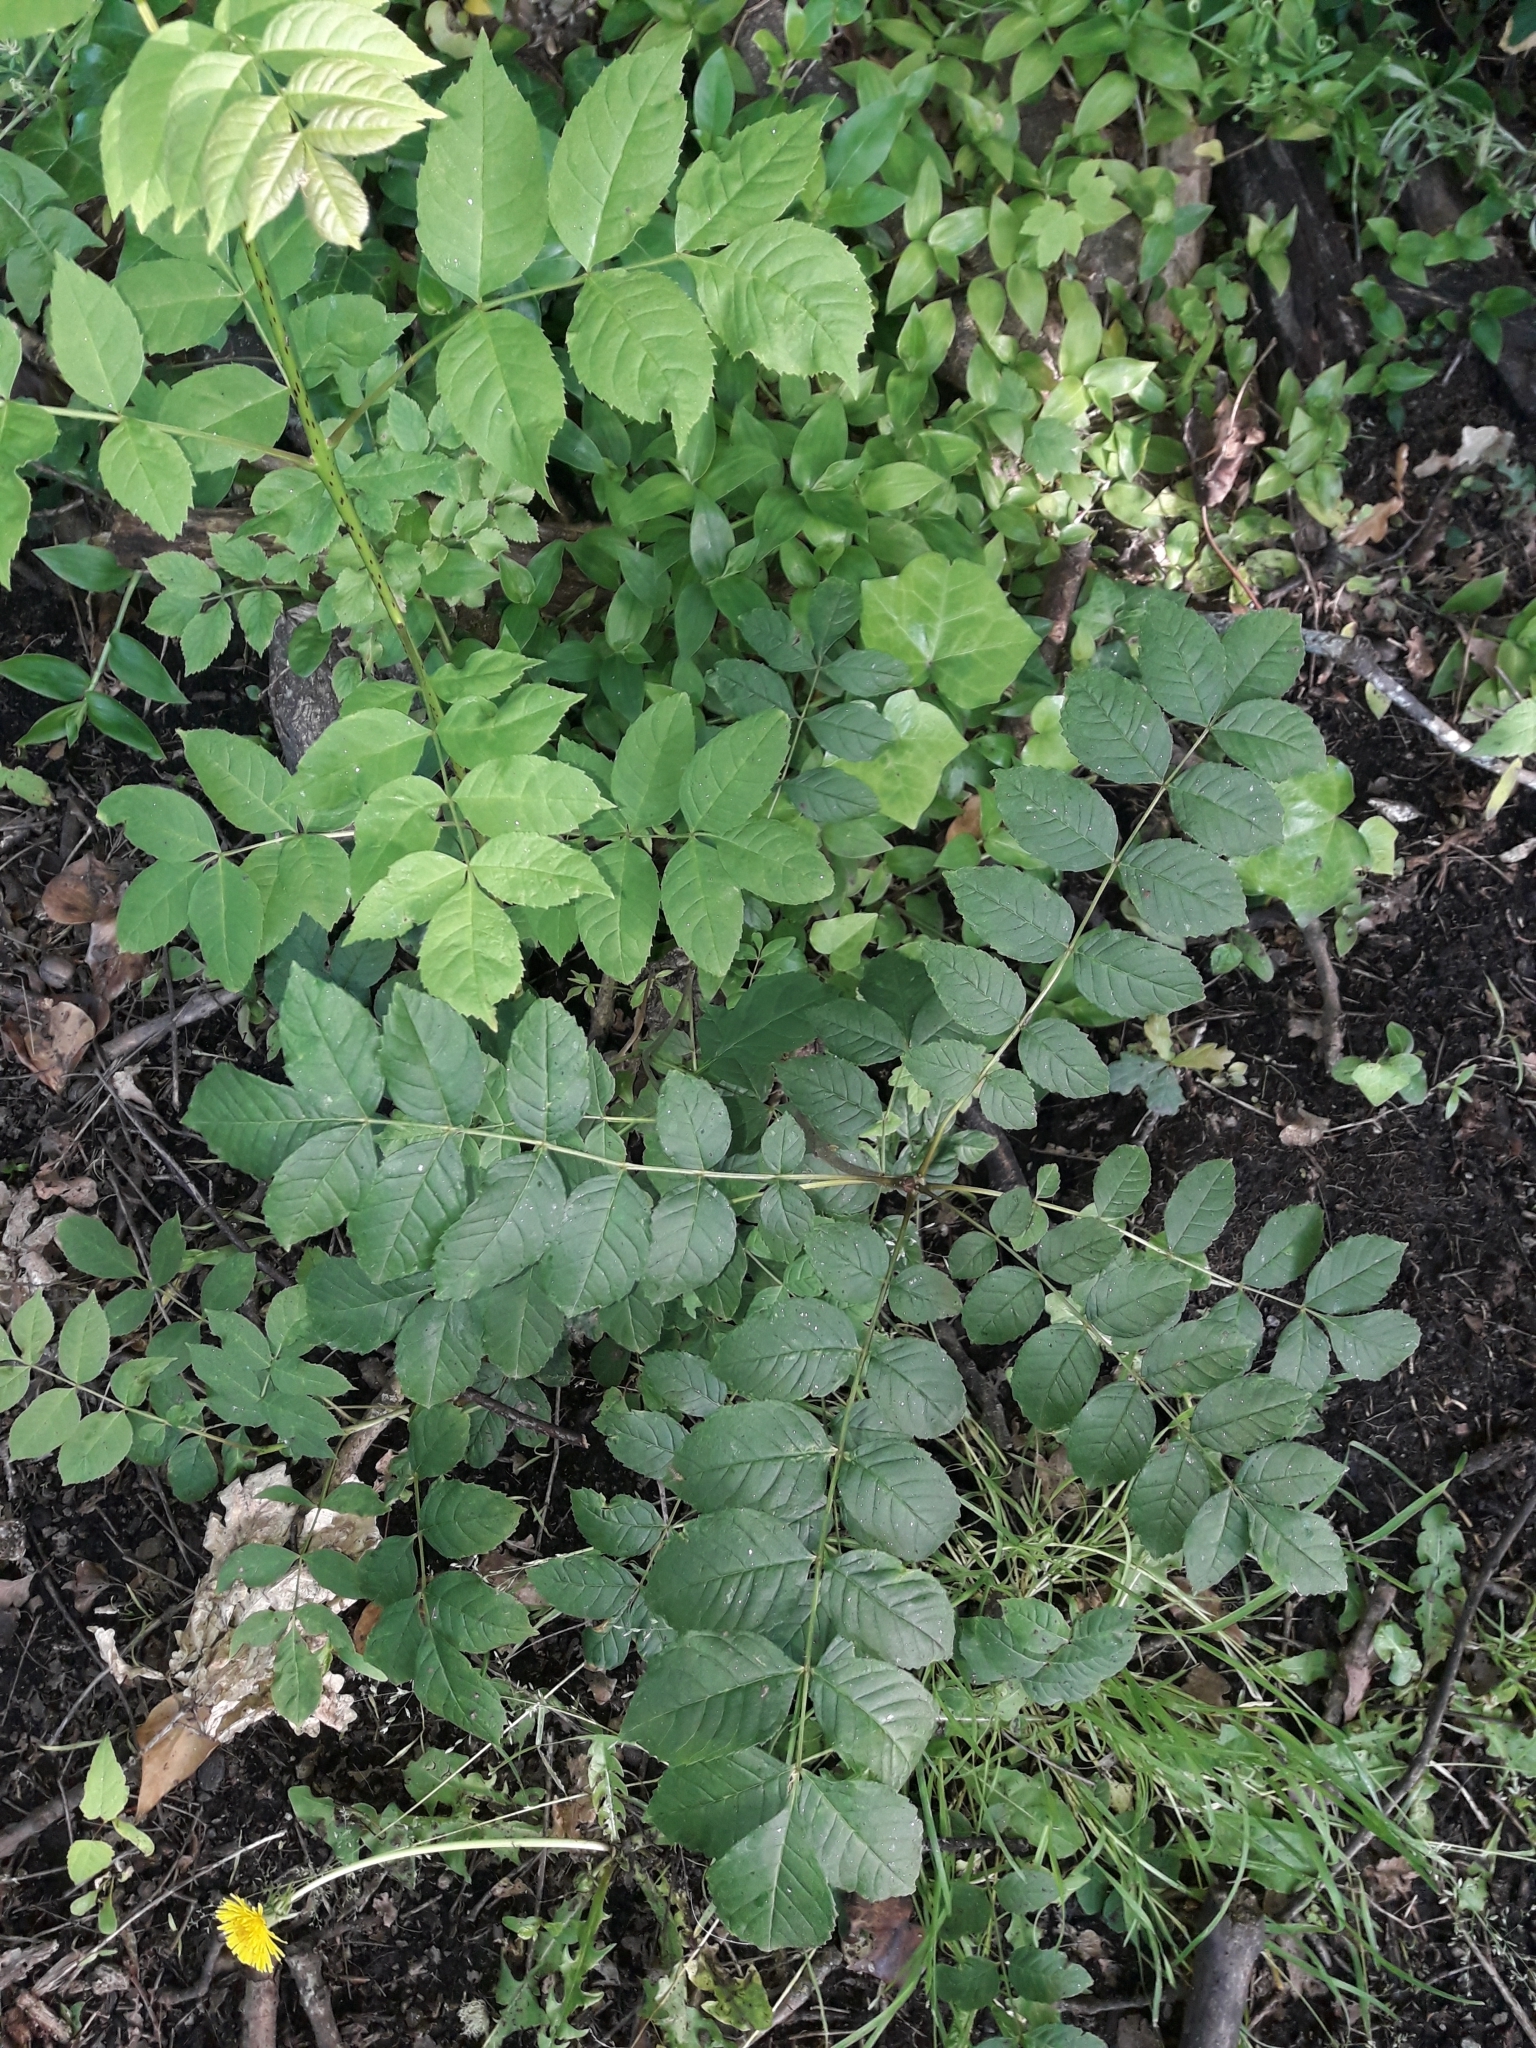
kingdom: Plantae
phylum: Tracheophyta
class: Magnoliopsida
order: Lamiales
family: Oleaceae
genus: Fraxinus
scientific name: Fraxinus excelsior
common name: European ash
